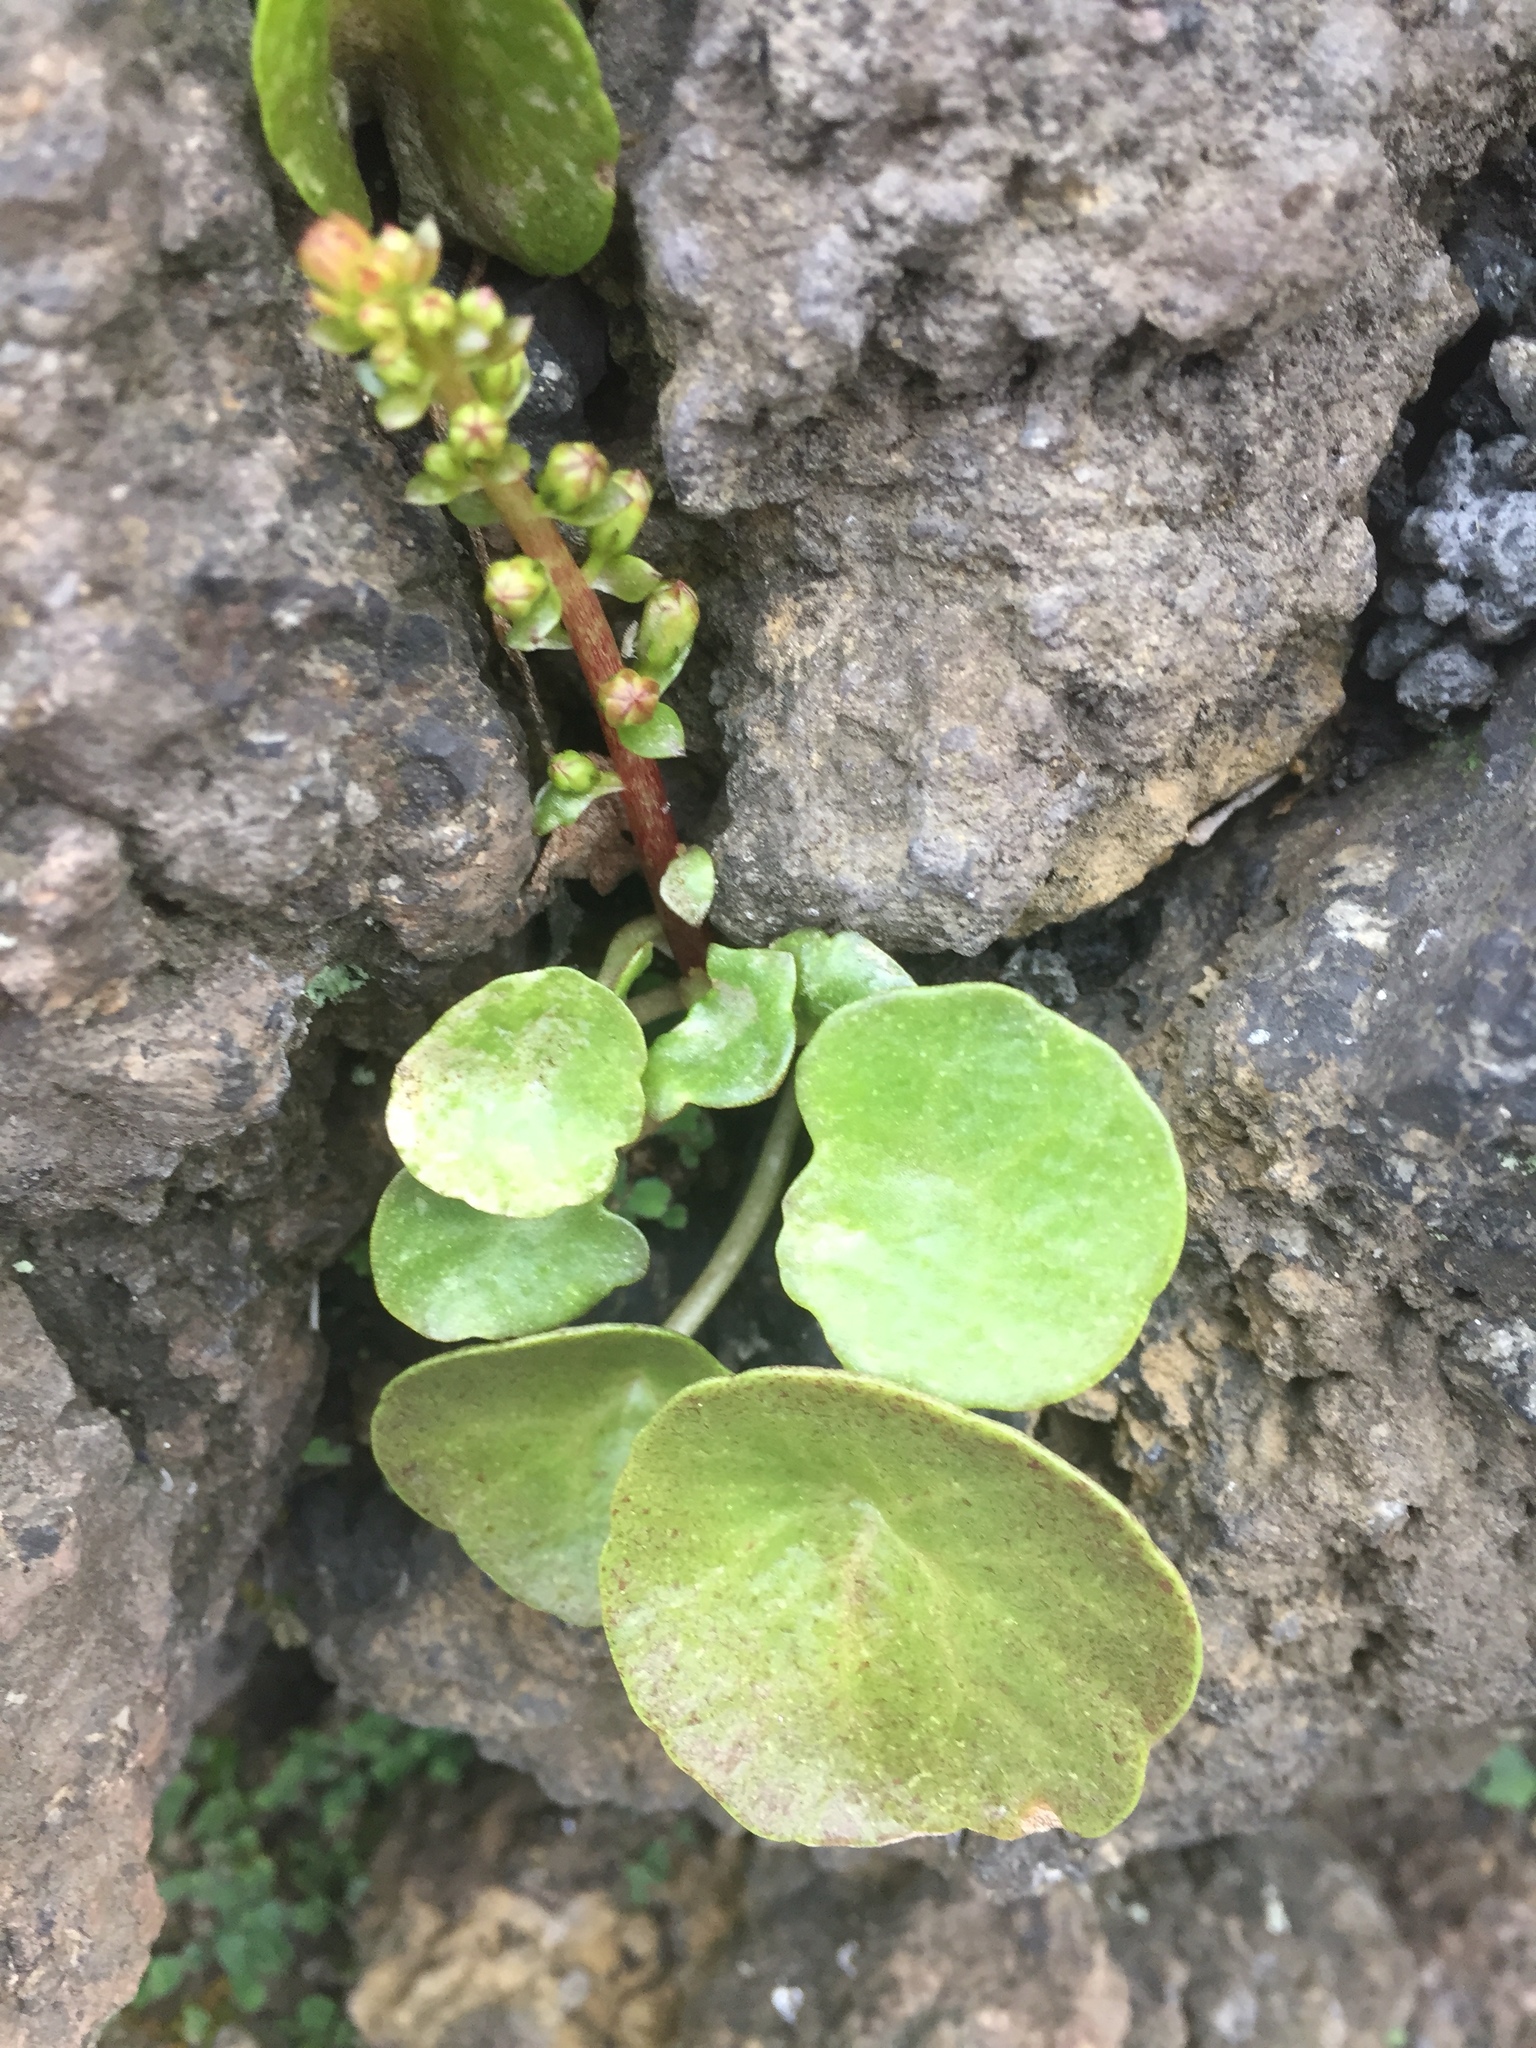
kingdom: Plantae
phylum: Tracheophyta
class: Magnoliopsida
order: Saxifragales
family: Crassulaceae
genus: Umbilicus
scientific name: Umbilicus rupestris
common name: Navelwort
